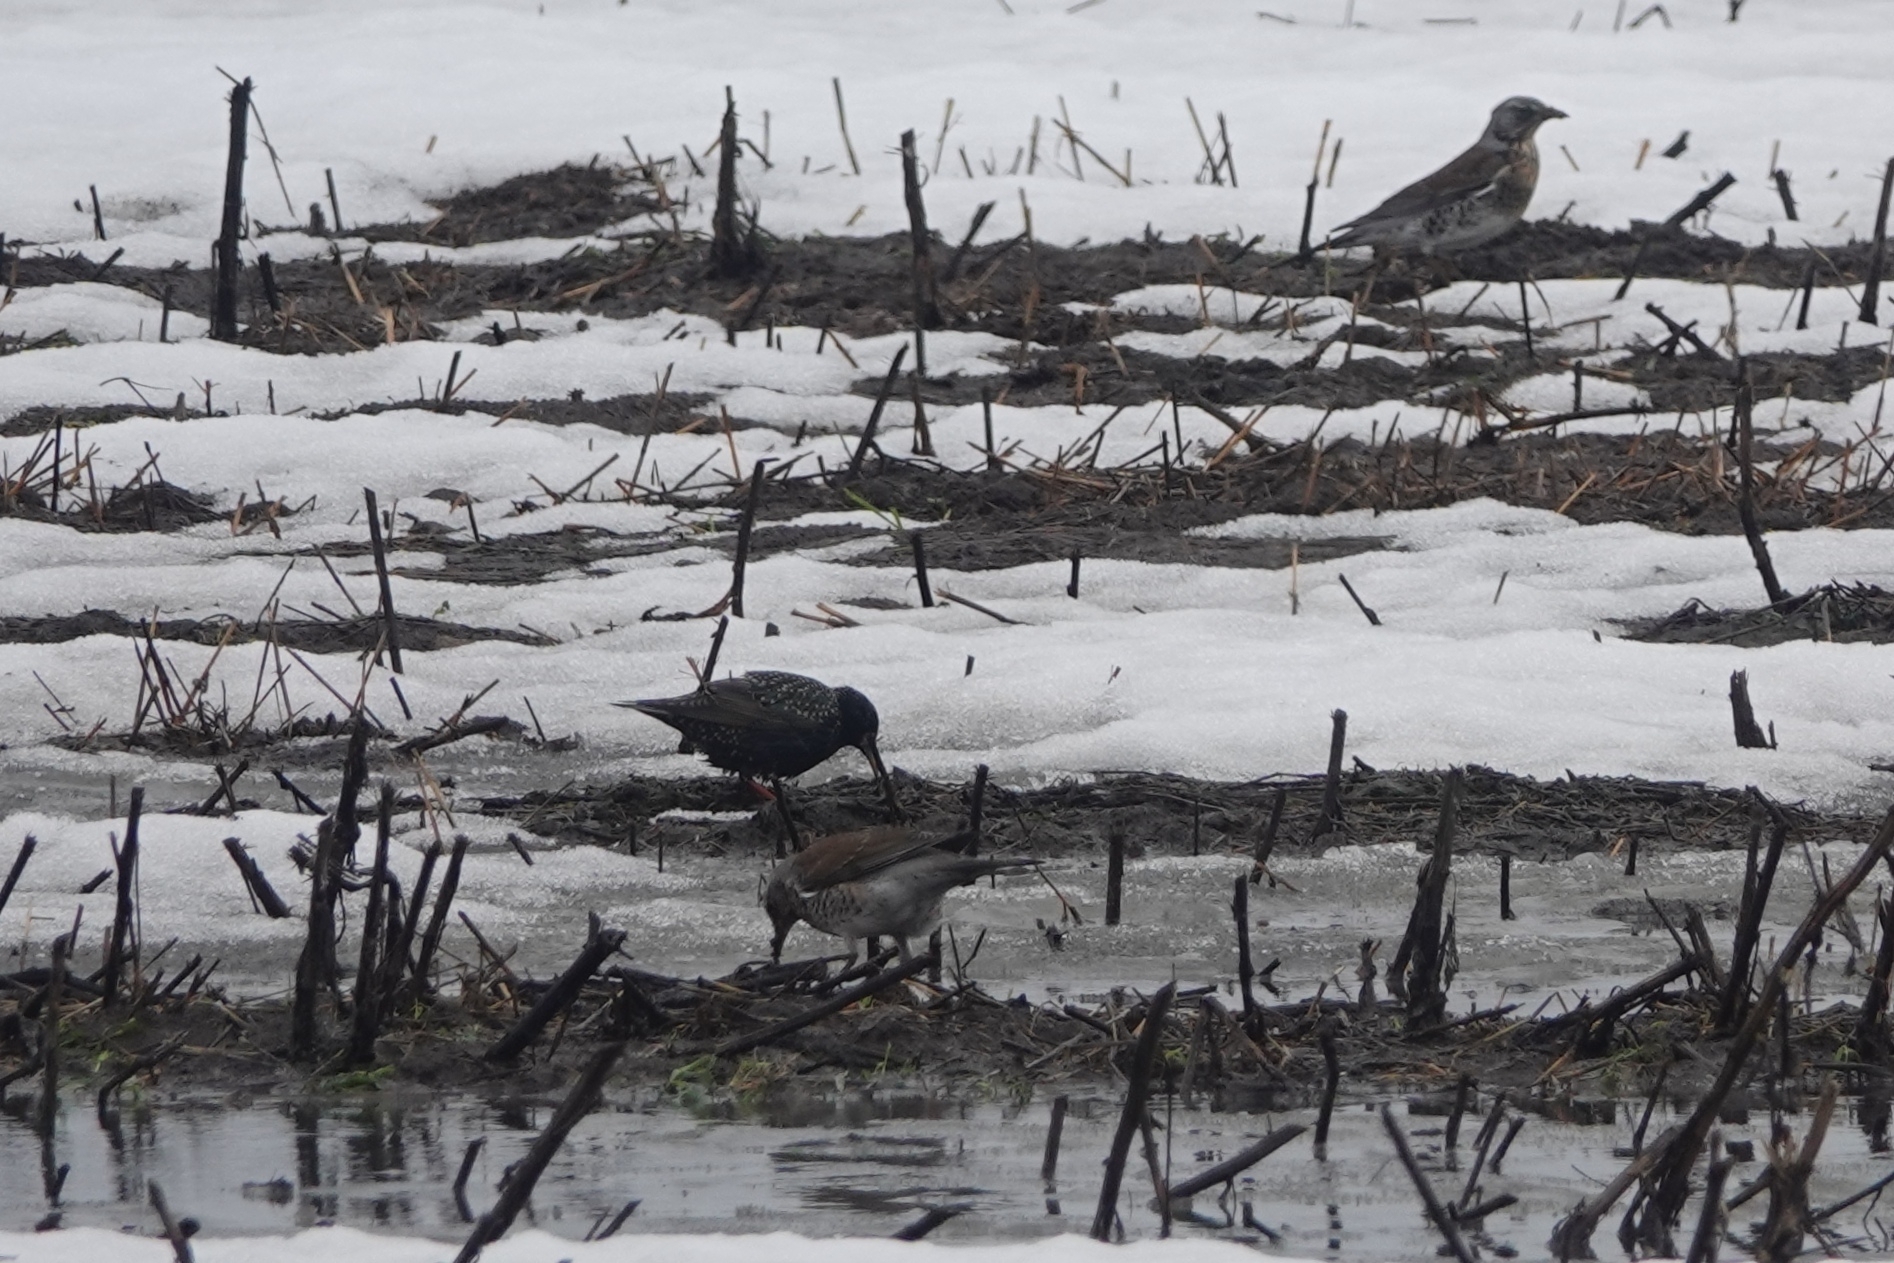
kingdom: Animalia
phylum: Chordata
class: Aves
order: Passeriformes
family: Sturnidae
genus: Sturnus
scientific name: Sturnus vulgaris
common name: Common starling
